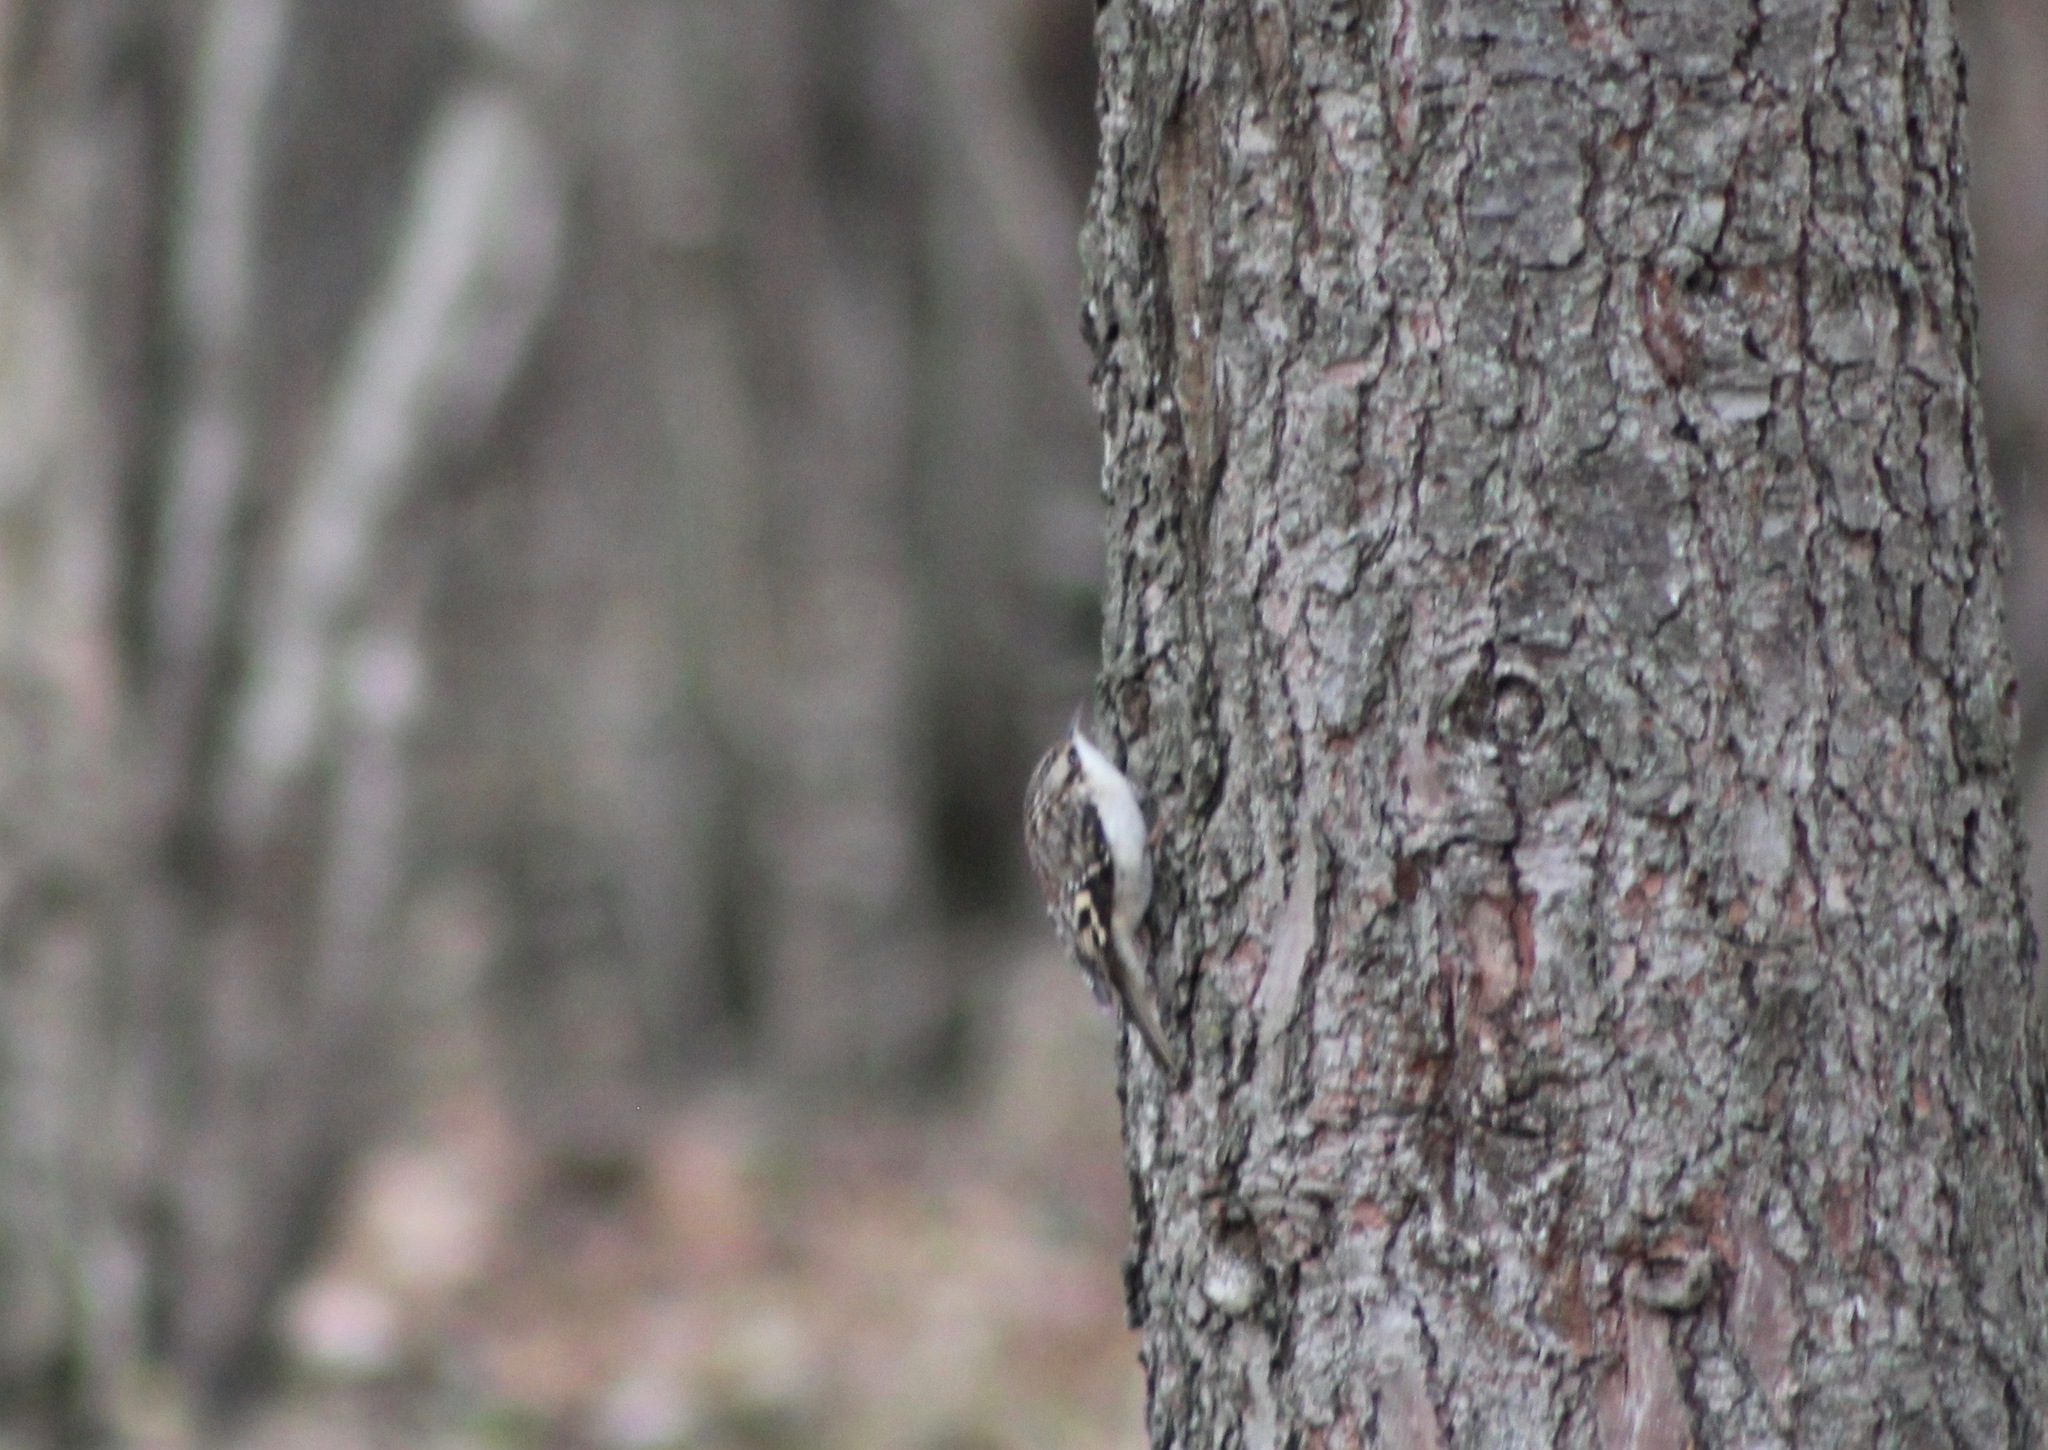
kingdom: Animalia
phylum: Chordata
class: Aves
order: Passeriformes
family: Certhiidae
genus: Certhia
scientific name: Certhia americana
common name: Brown creeper
